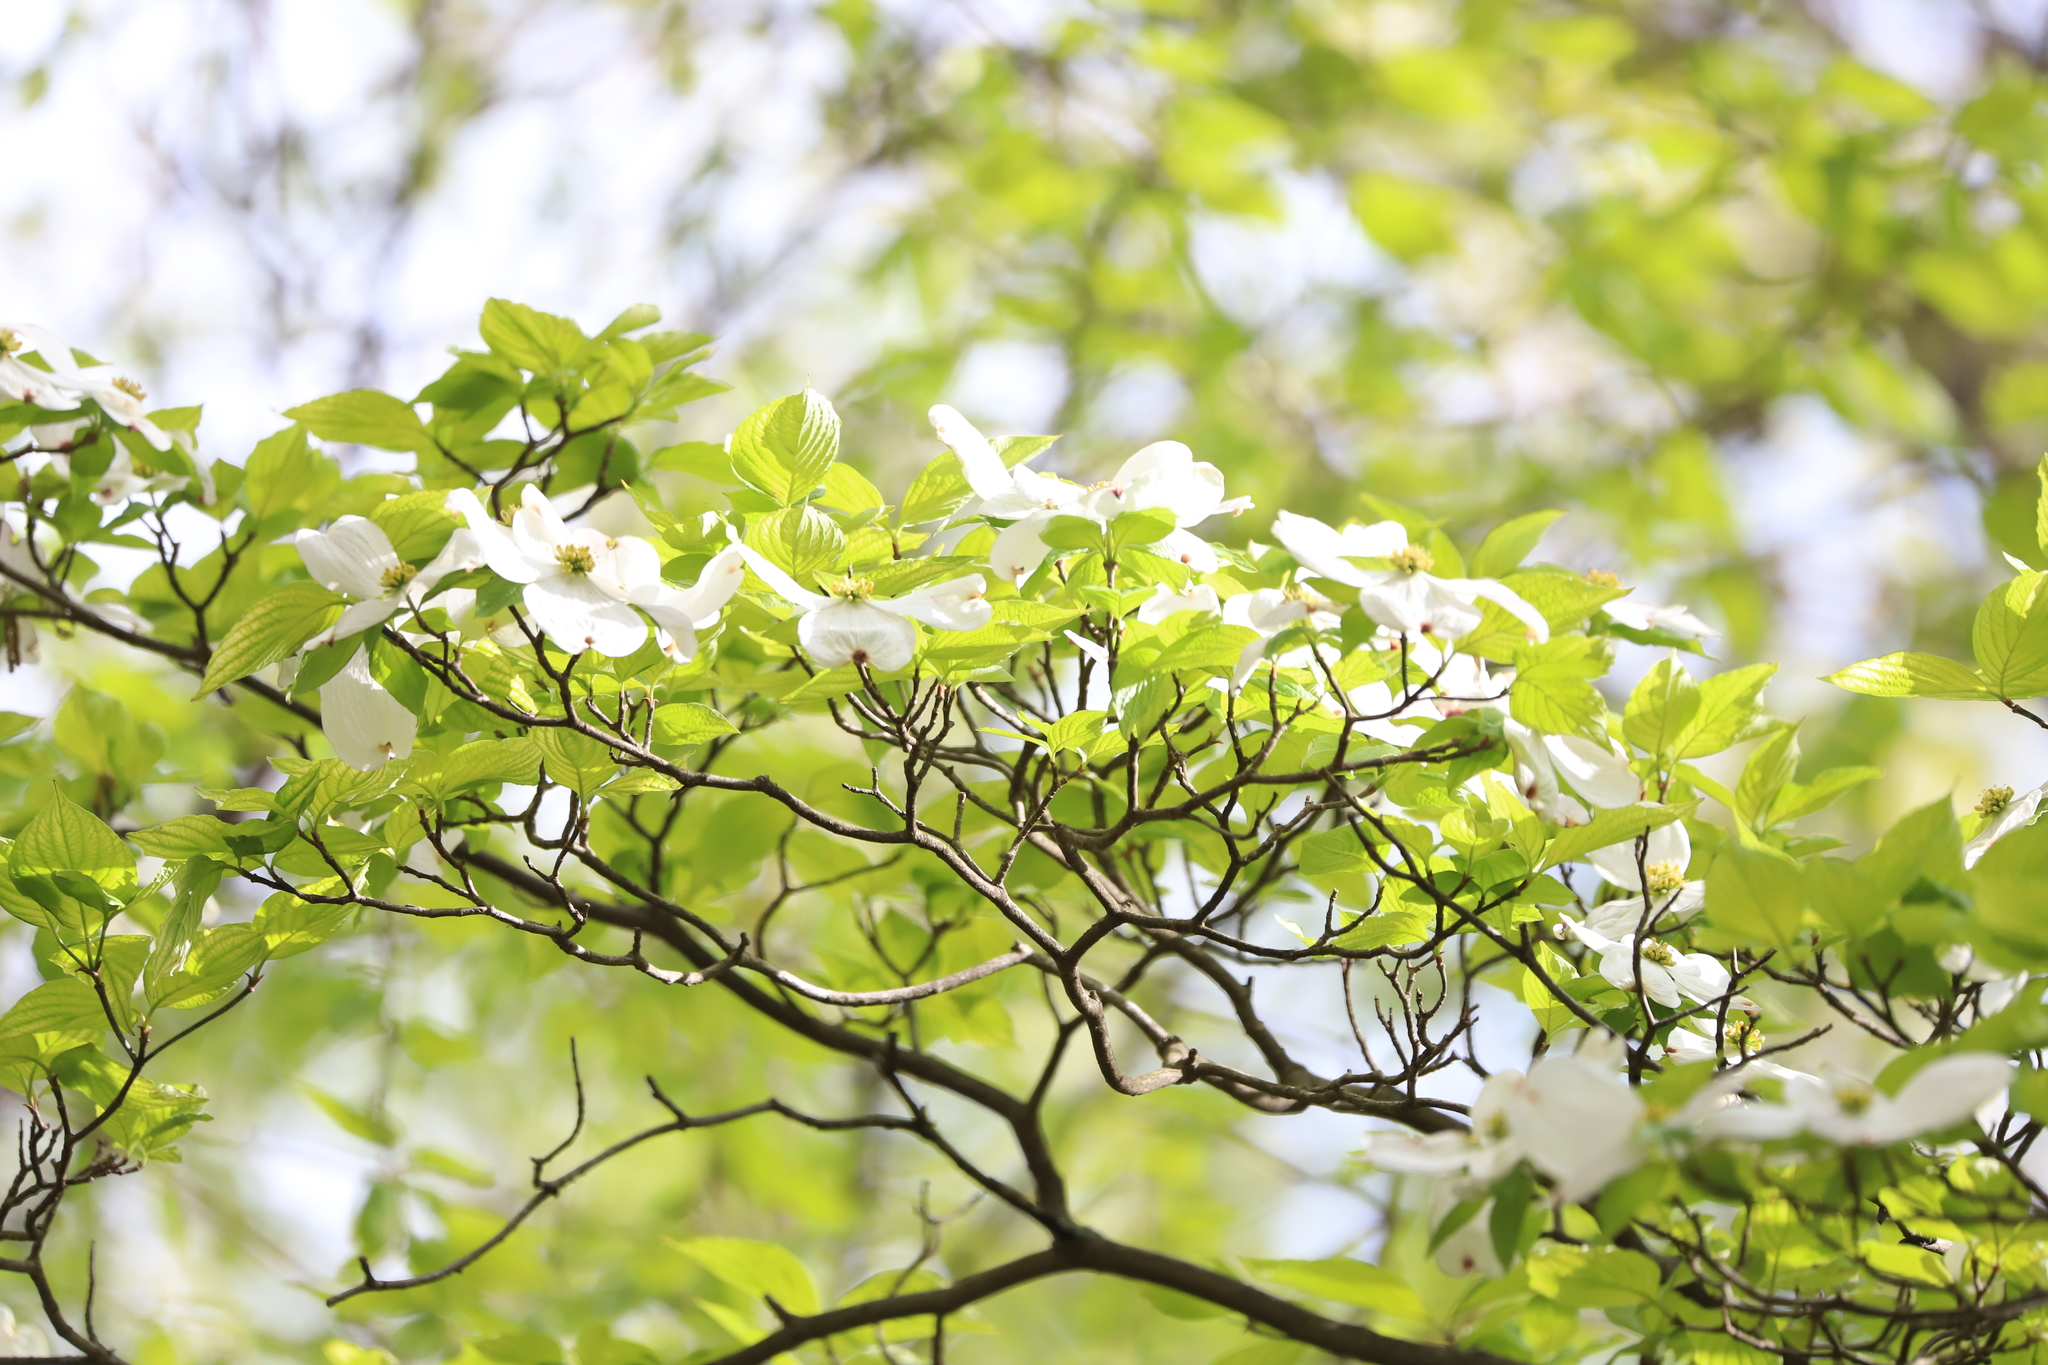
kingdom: Plantae
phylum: Tracheophyta
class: Magnoliopsida
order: Cornales
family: Cornaceae
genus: Cornus
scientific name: Cornus florida
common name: Flowering dogwood
